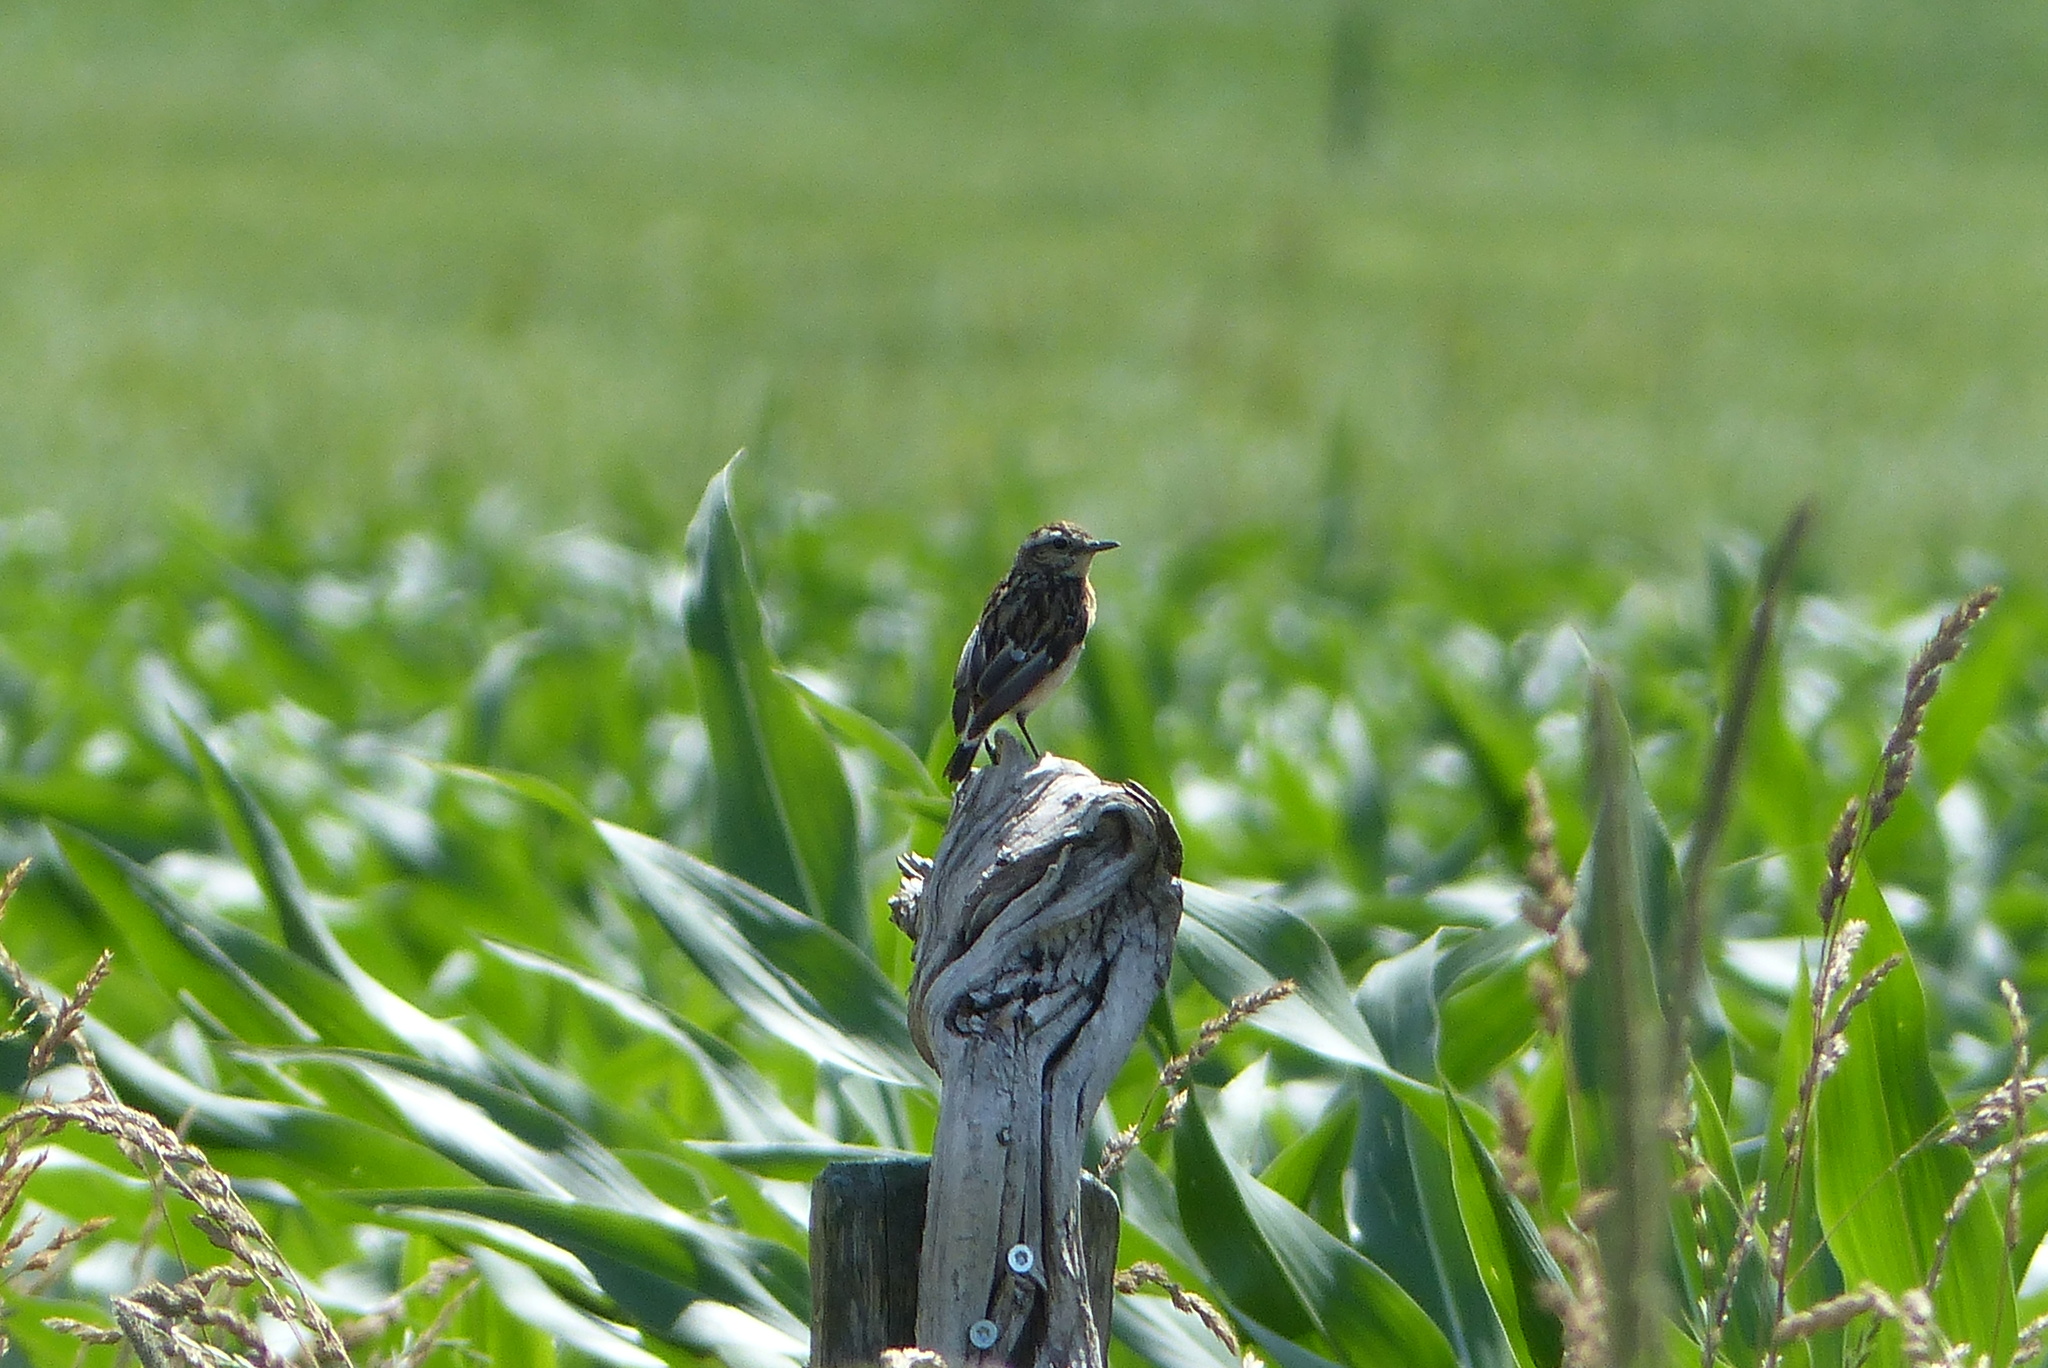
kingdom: Animalia
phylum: Chordata
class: Aves
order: Passeriformes
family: Muscicapidae
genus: Saxicola
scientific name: Saxicola rubetra
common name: Whinchat
